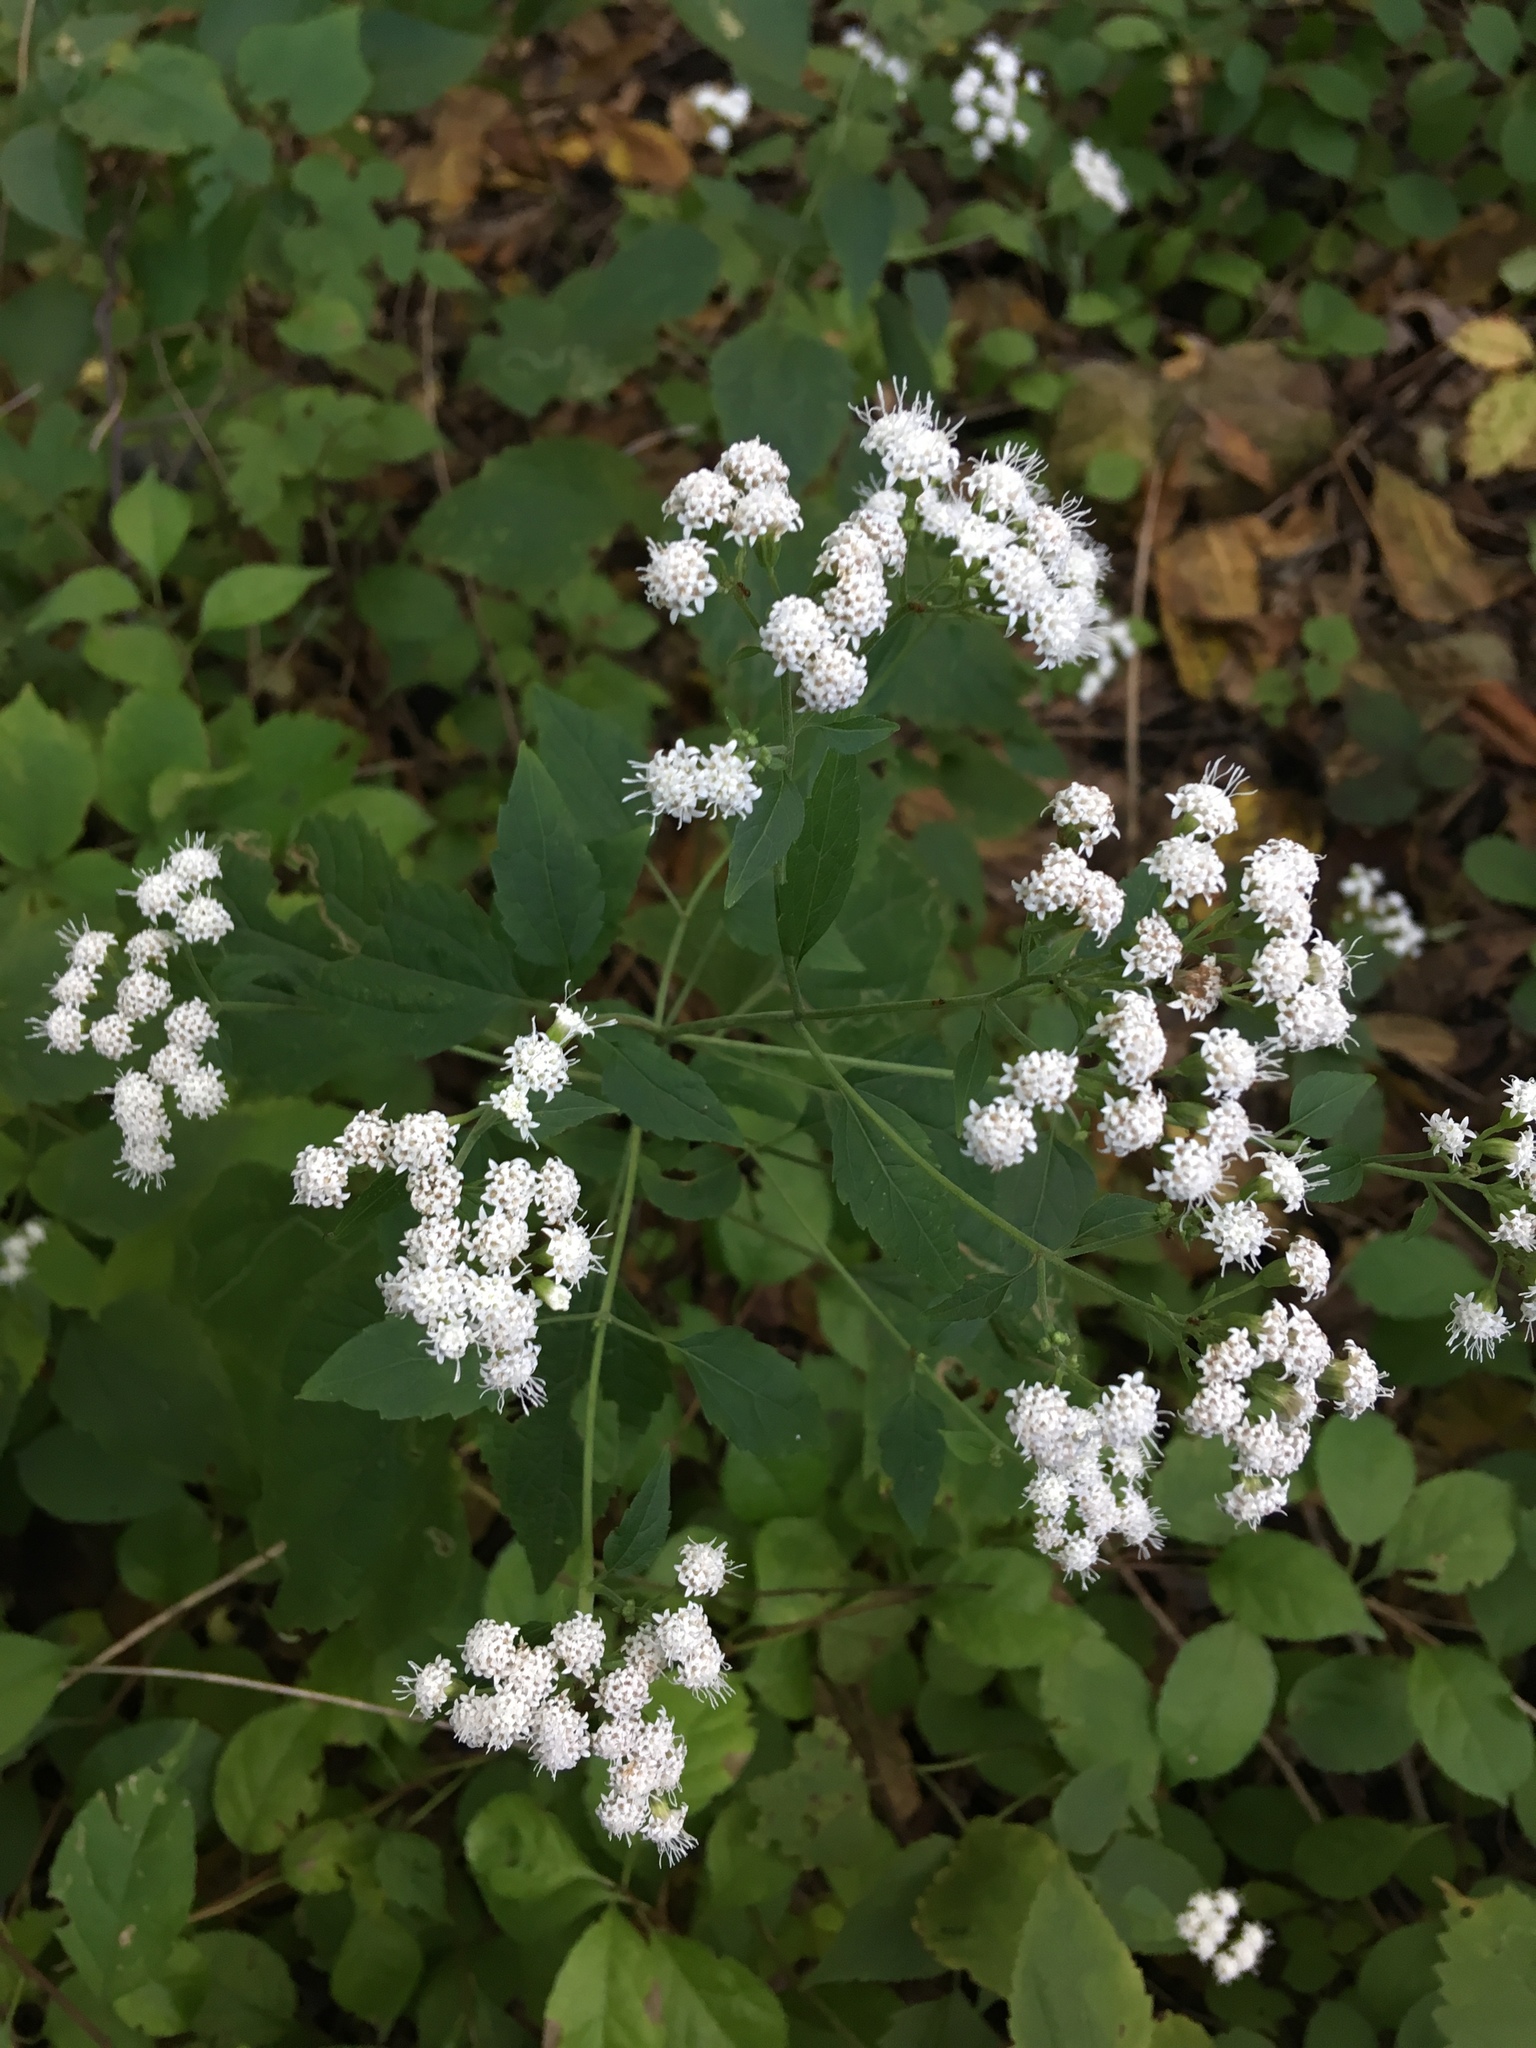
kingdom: Plantae
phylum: Tracheophyta
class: Magnoliopsida
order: Asterales
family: Asteraceae
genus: Ageratina
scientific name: Ageratina altissima
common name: White snakeroot
